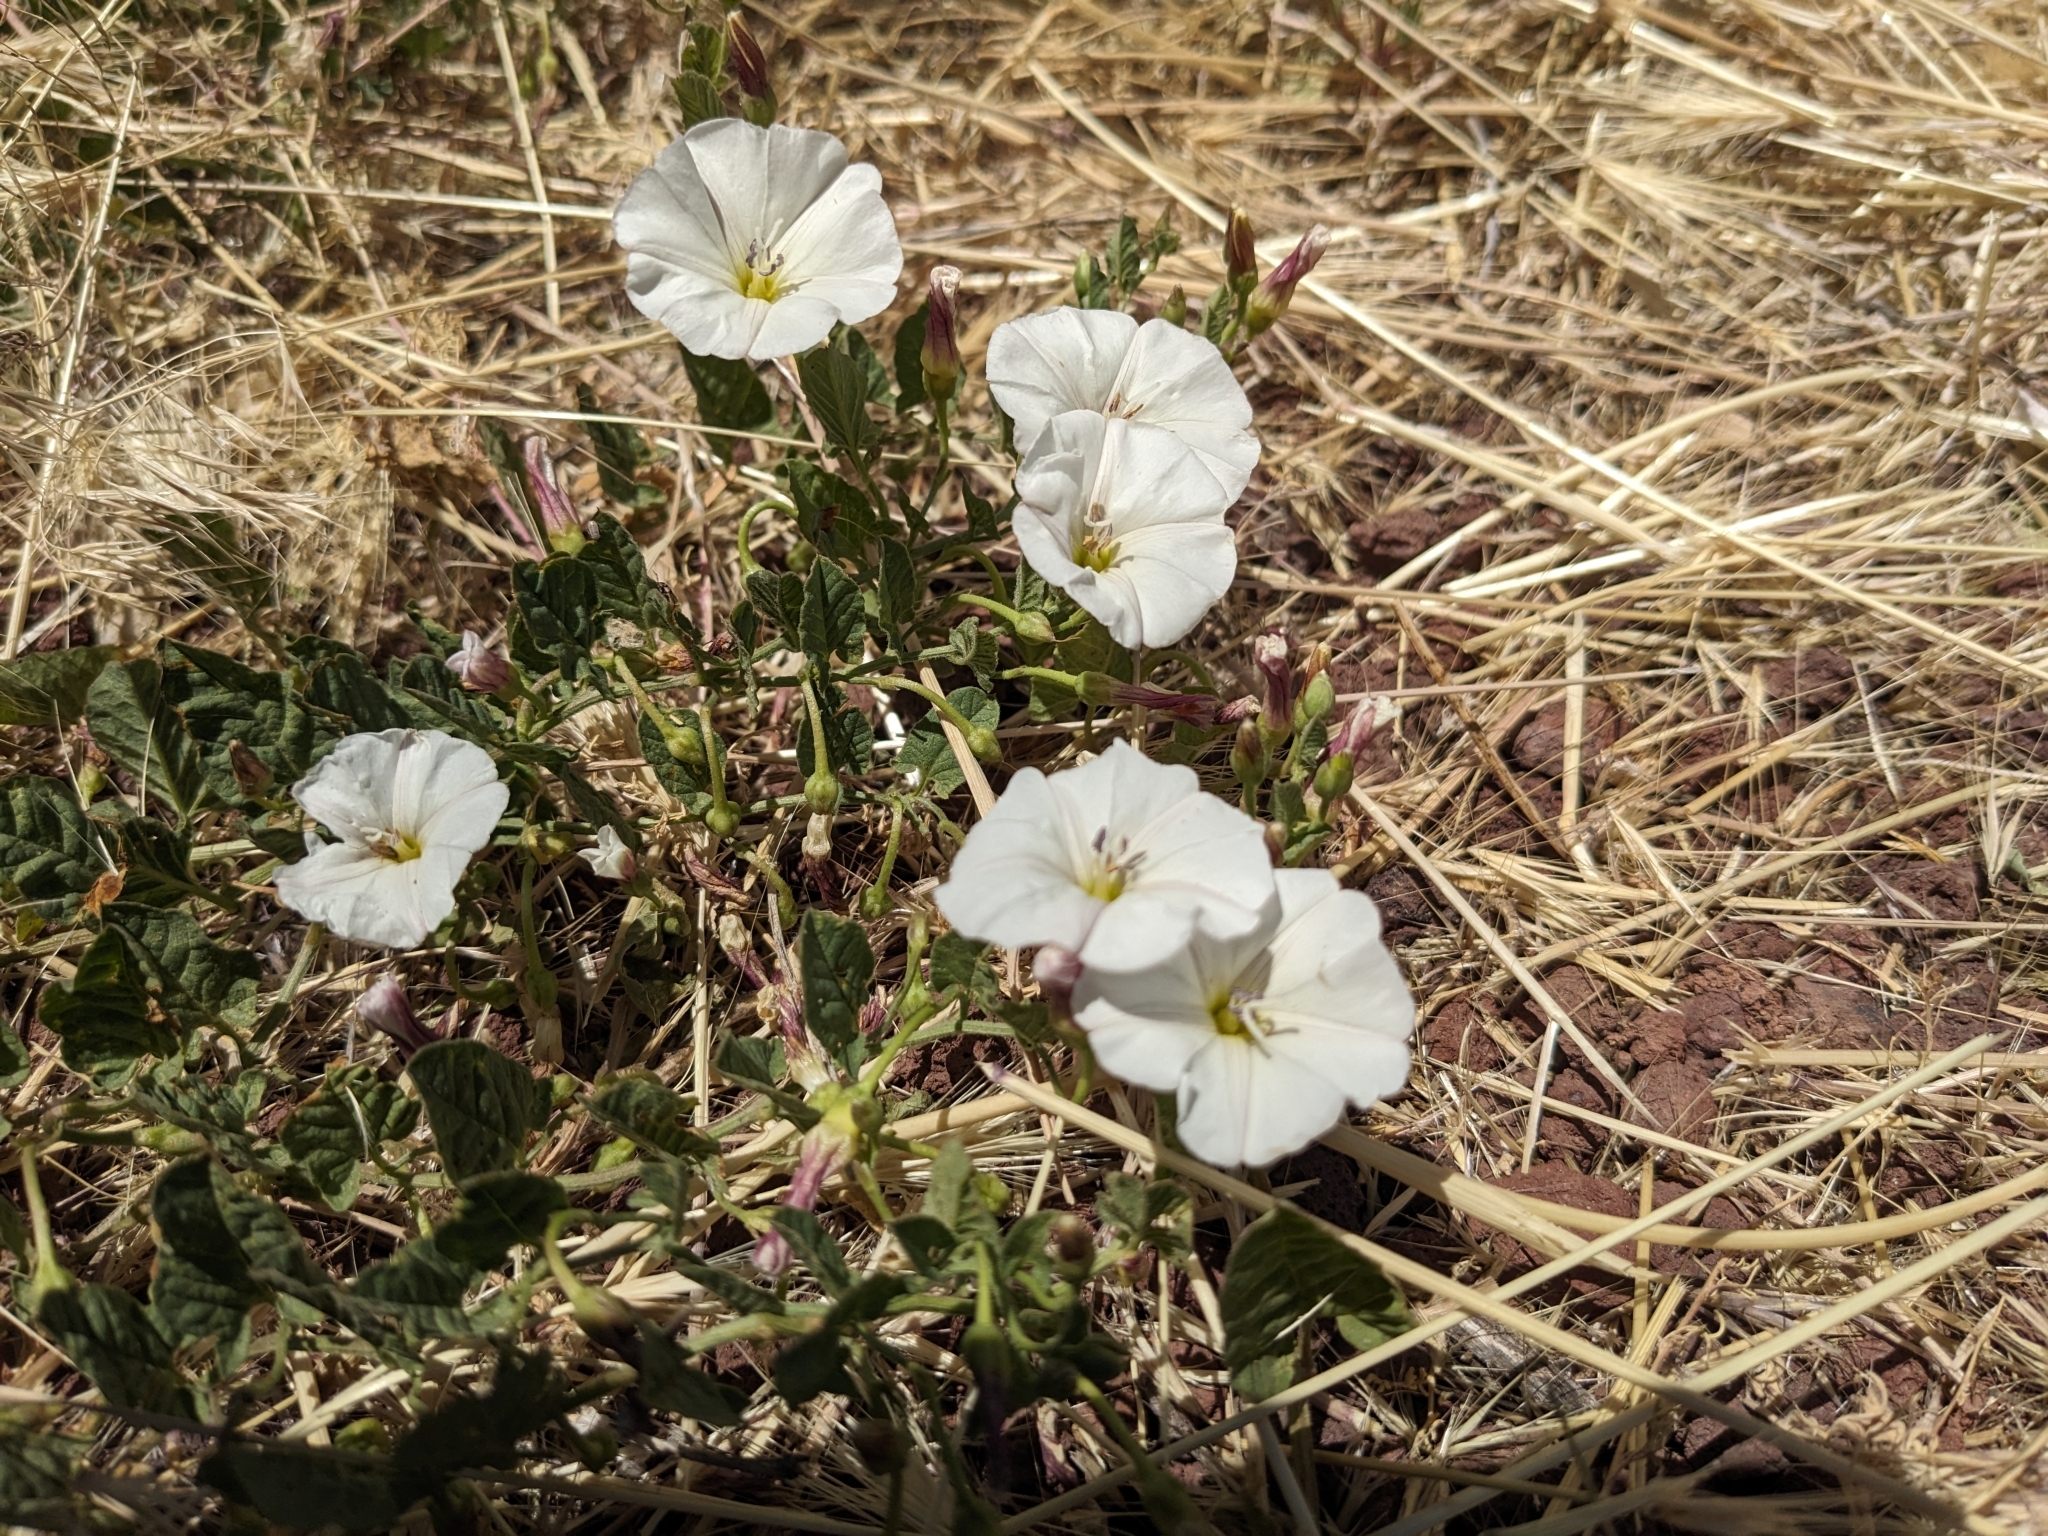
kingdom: Plantae
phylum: Tracheophyta
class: Magnoliopsida
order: Solanales
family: Convolvulaceae
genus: Convolvulus
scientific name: Convolvulus arvensis
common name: Field bindweed
